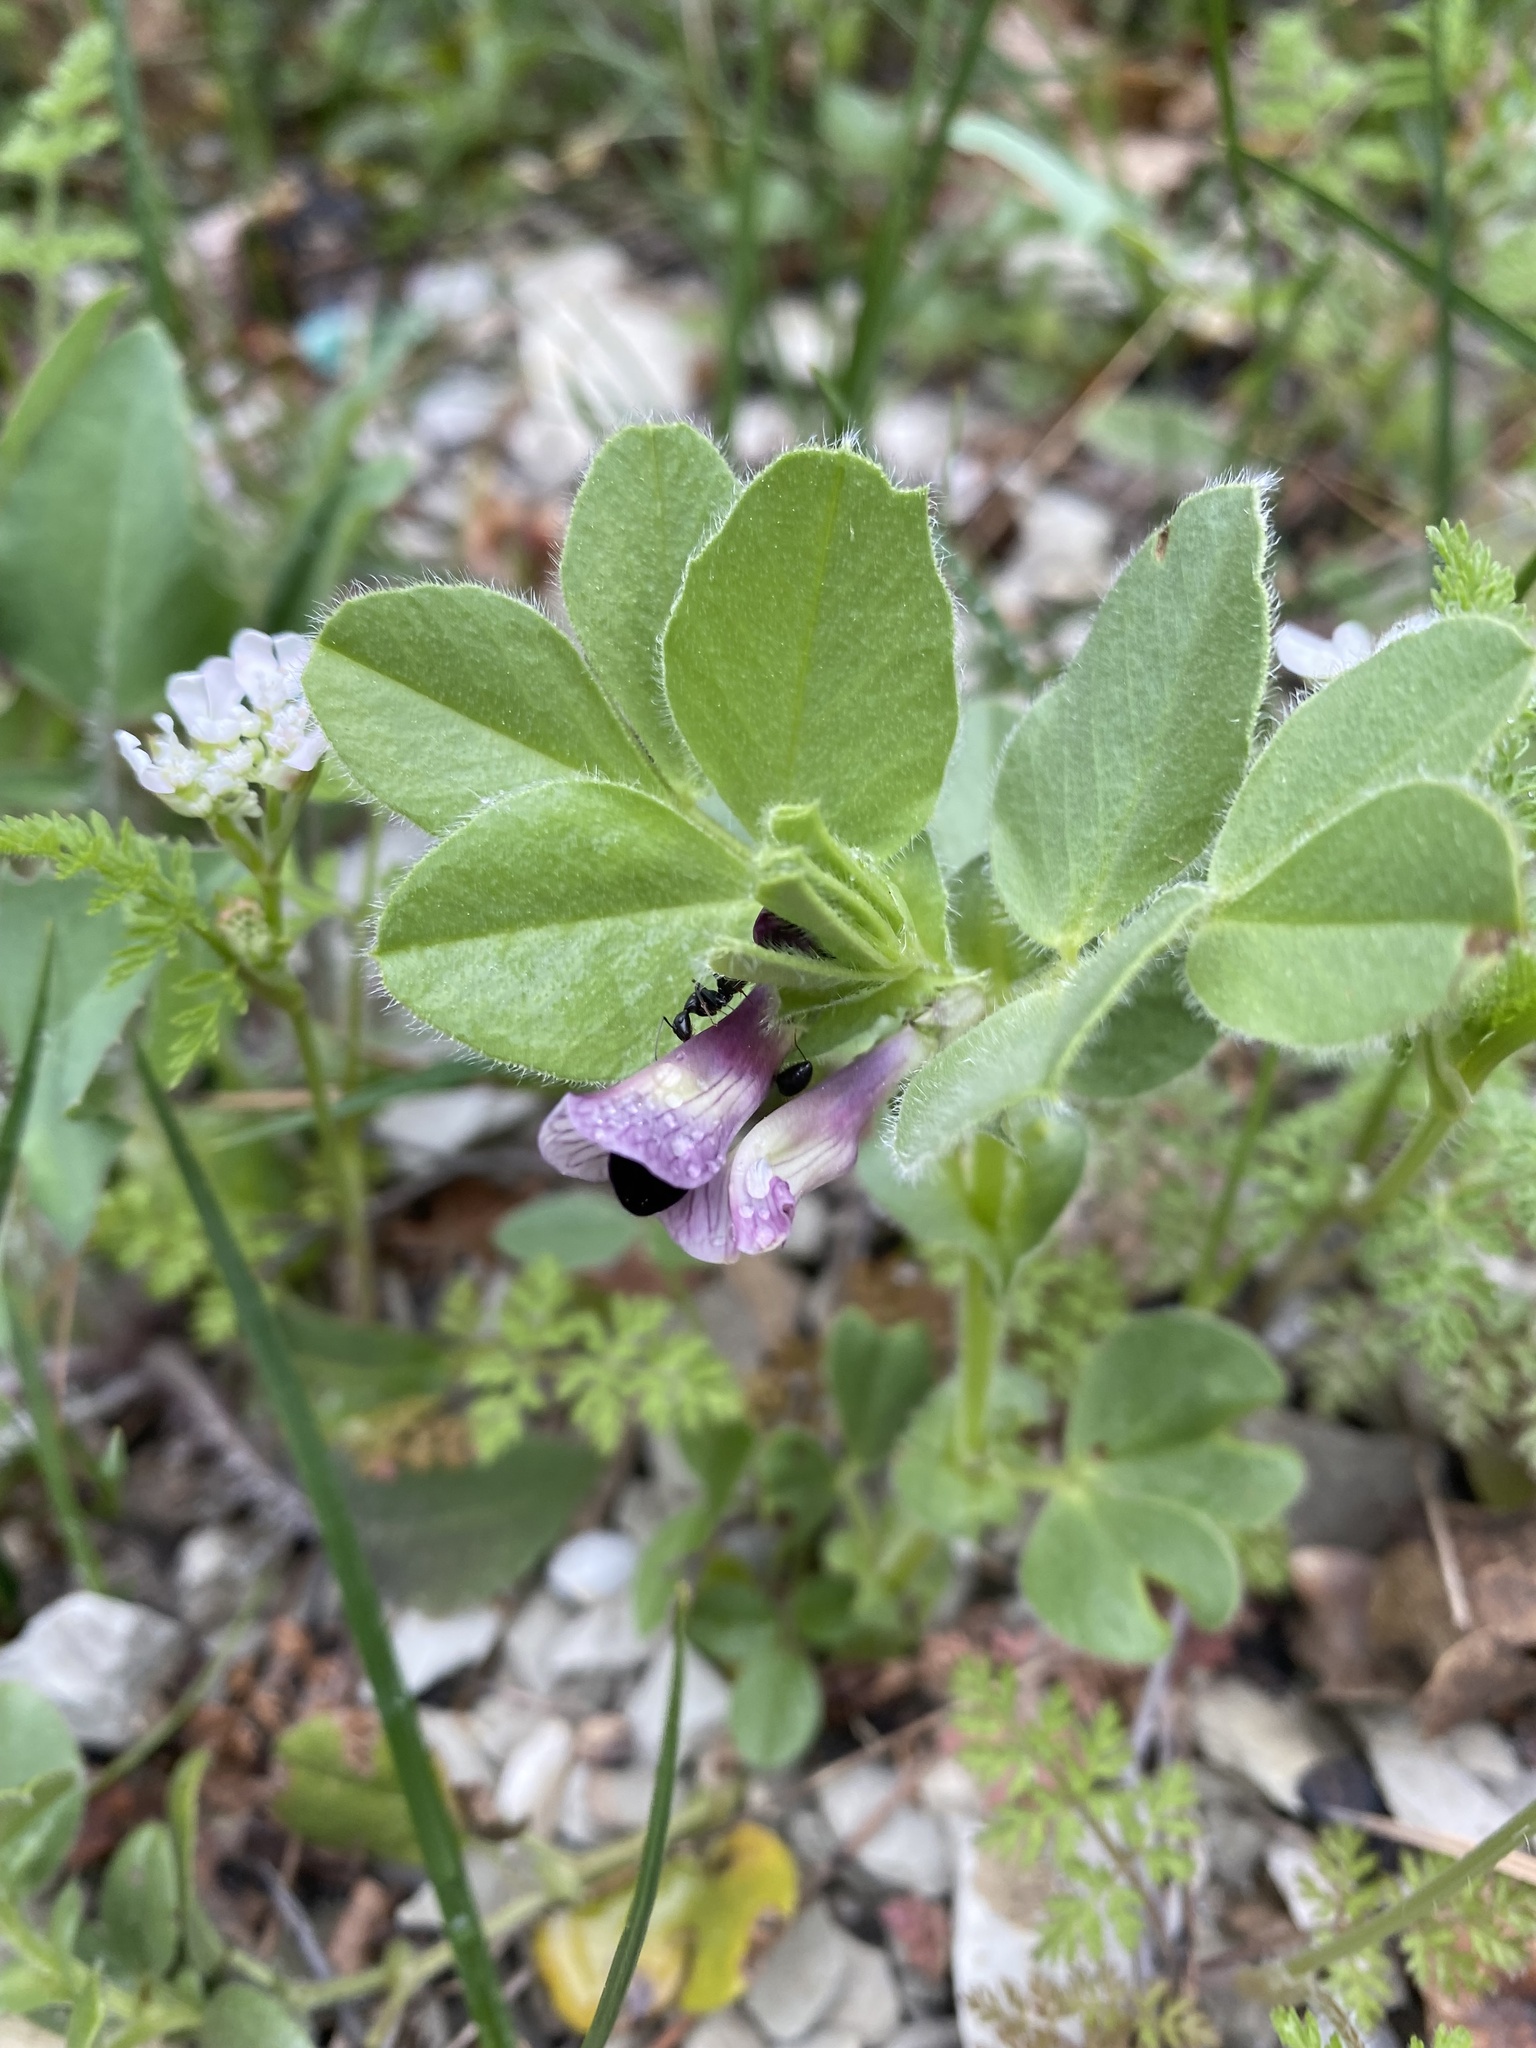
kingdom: Plantae
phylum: Tracheophyta
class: Magnoliopsida
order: Fabales
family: Fabaceae
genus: Vicia
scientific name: Vicia narbonensis
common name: Narbonne vetch
